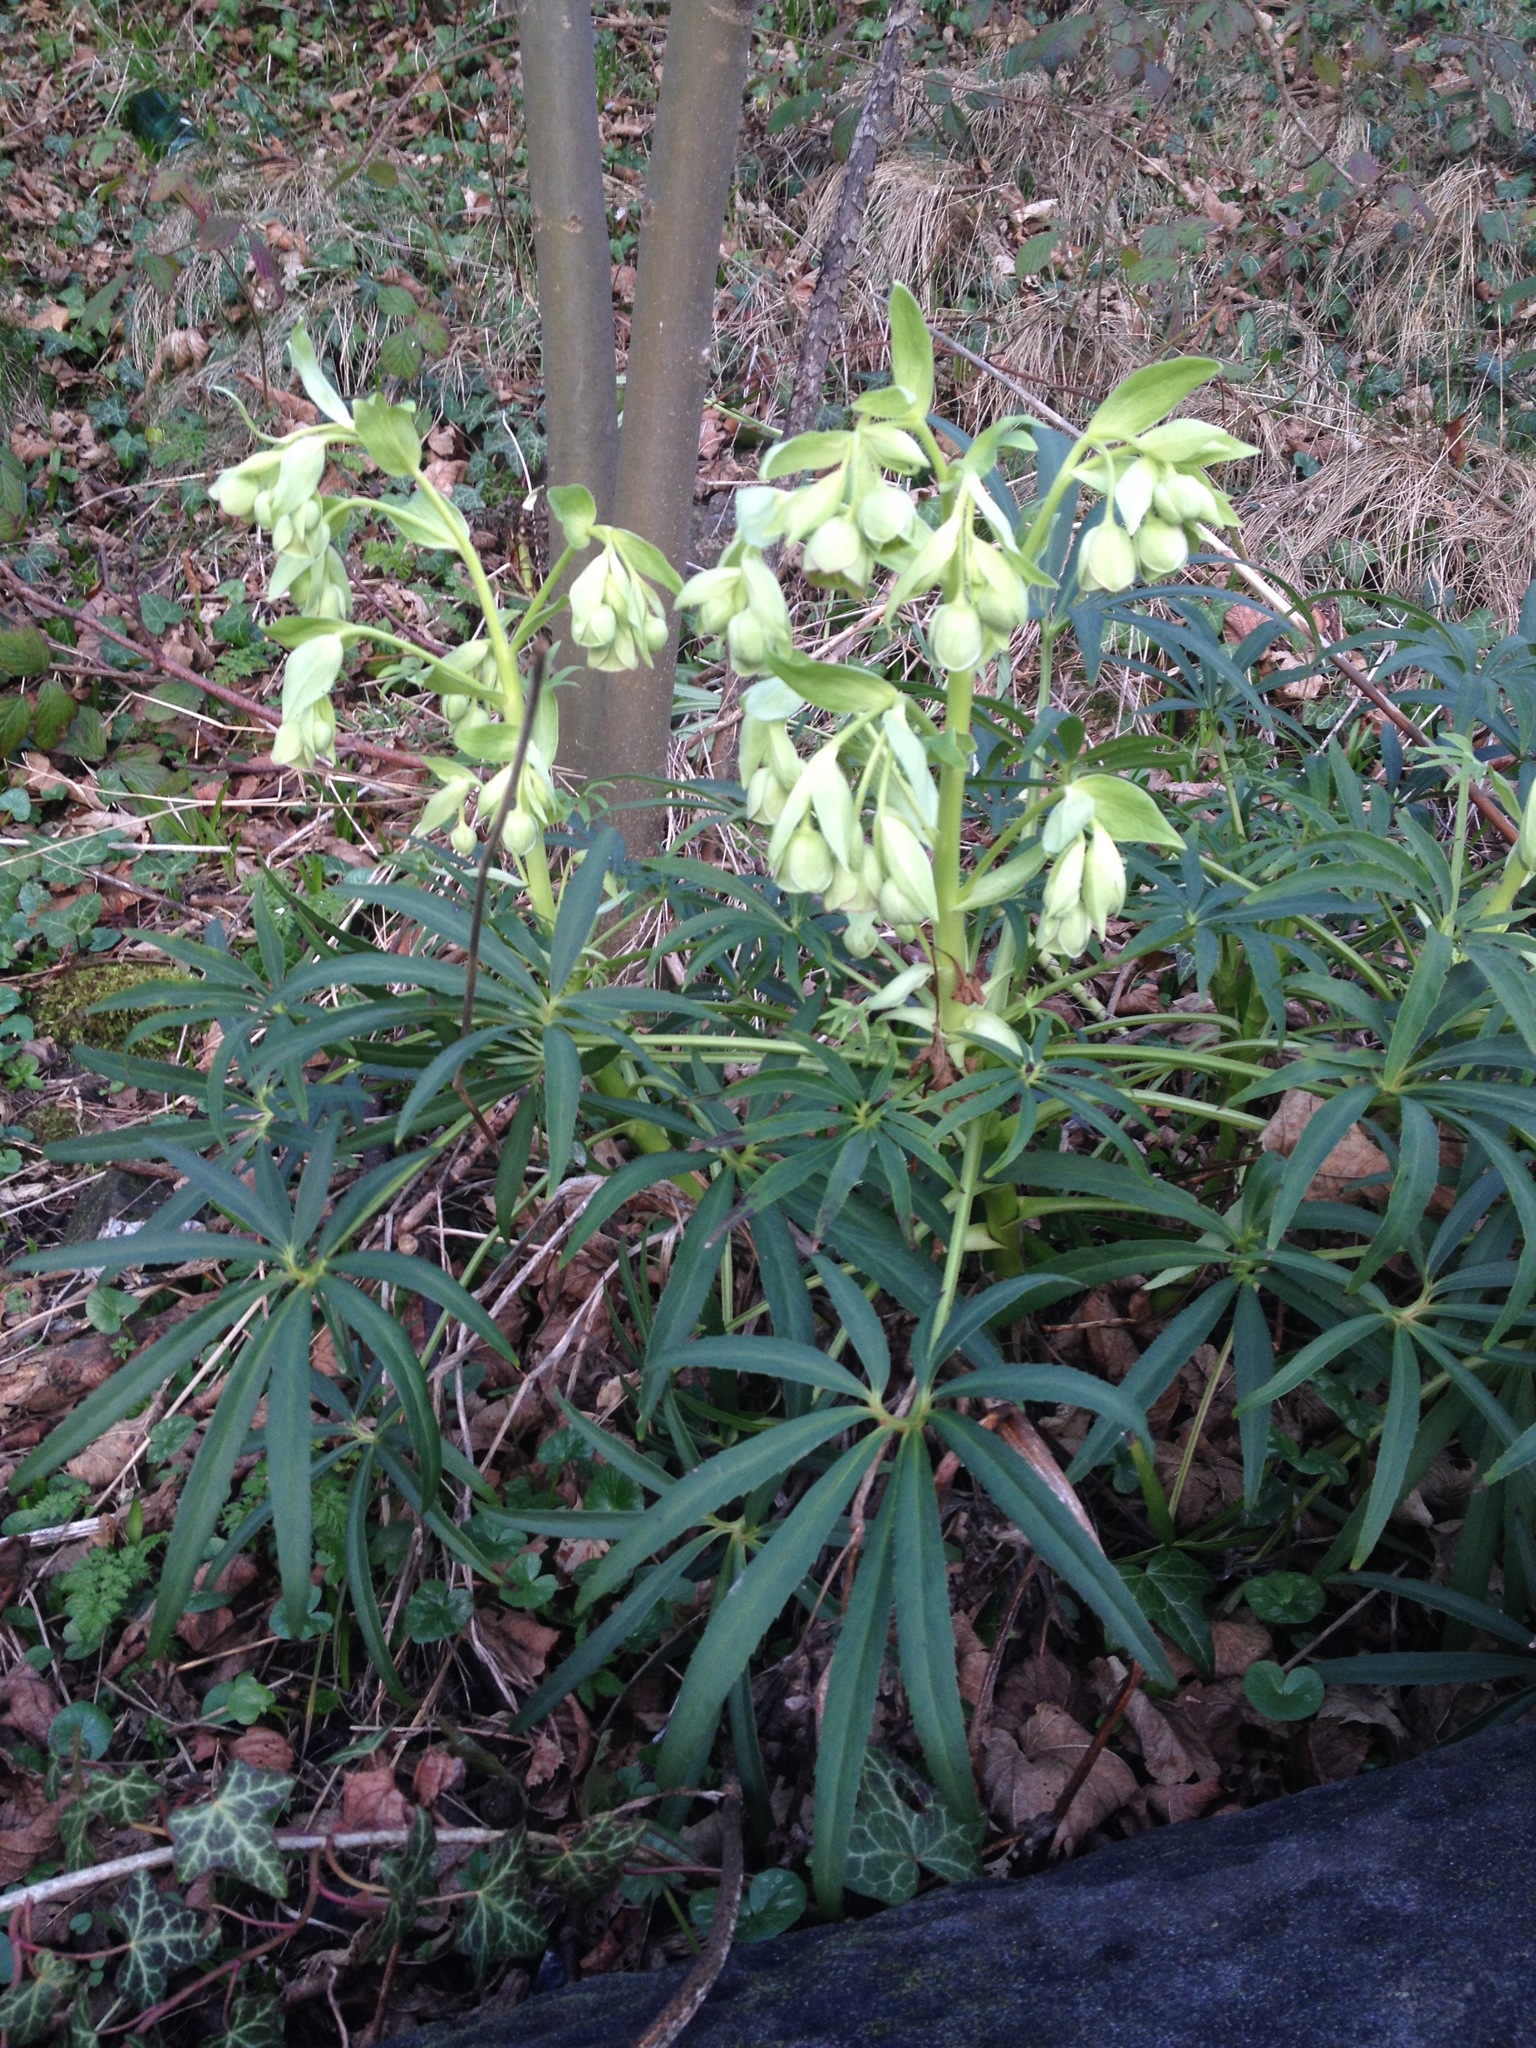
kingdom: Plantae
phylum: Tracheophyta
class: Magnoliopsida
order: Ranunculales
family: Ranunculaceae
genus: Helleborus
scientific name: Helleborus foetidus
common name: Stinking hellebore
